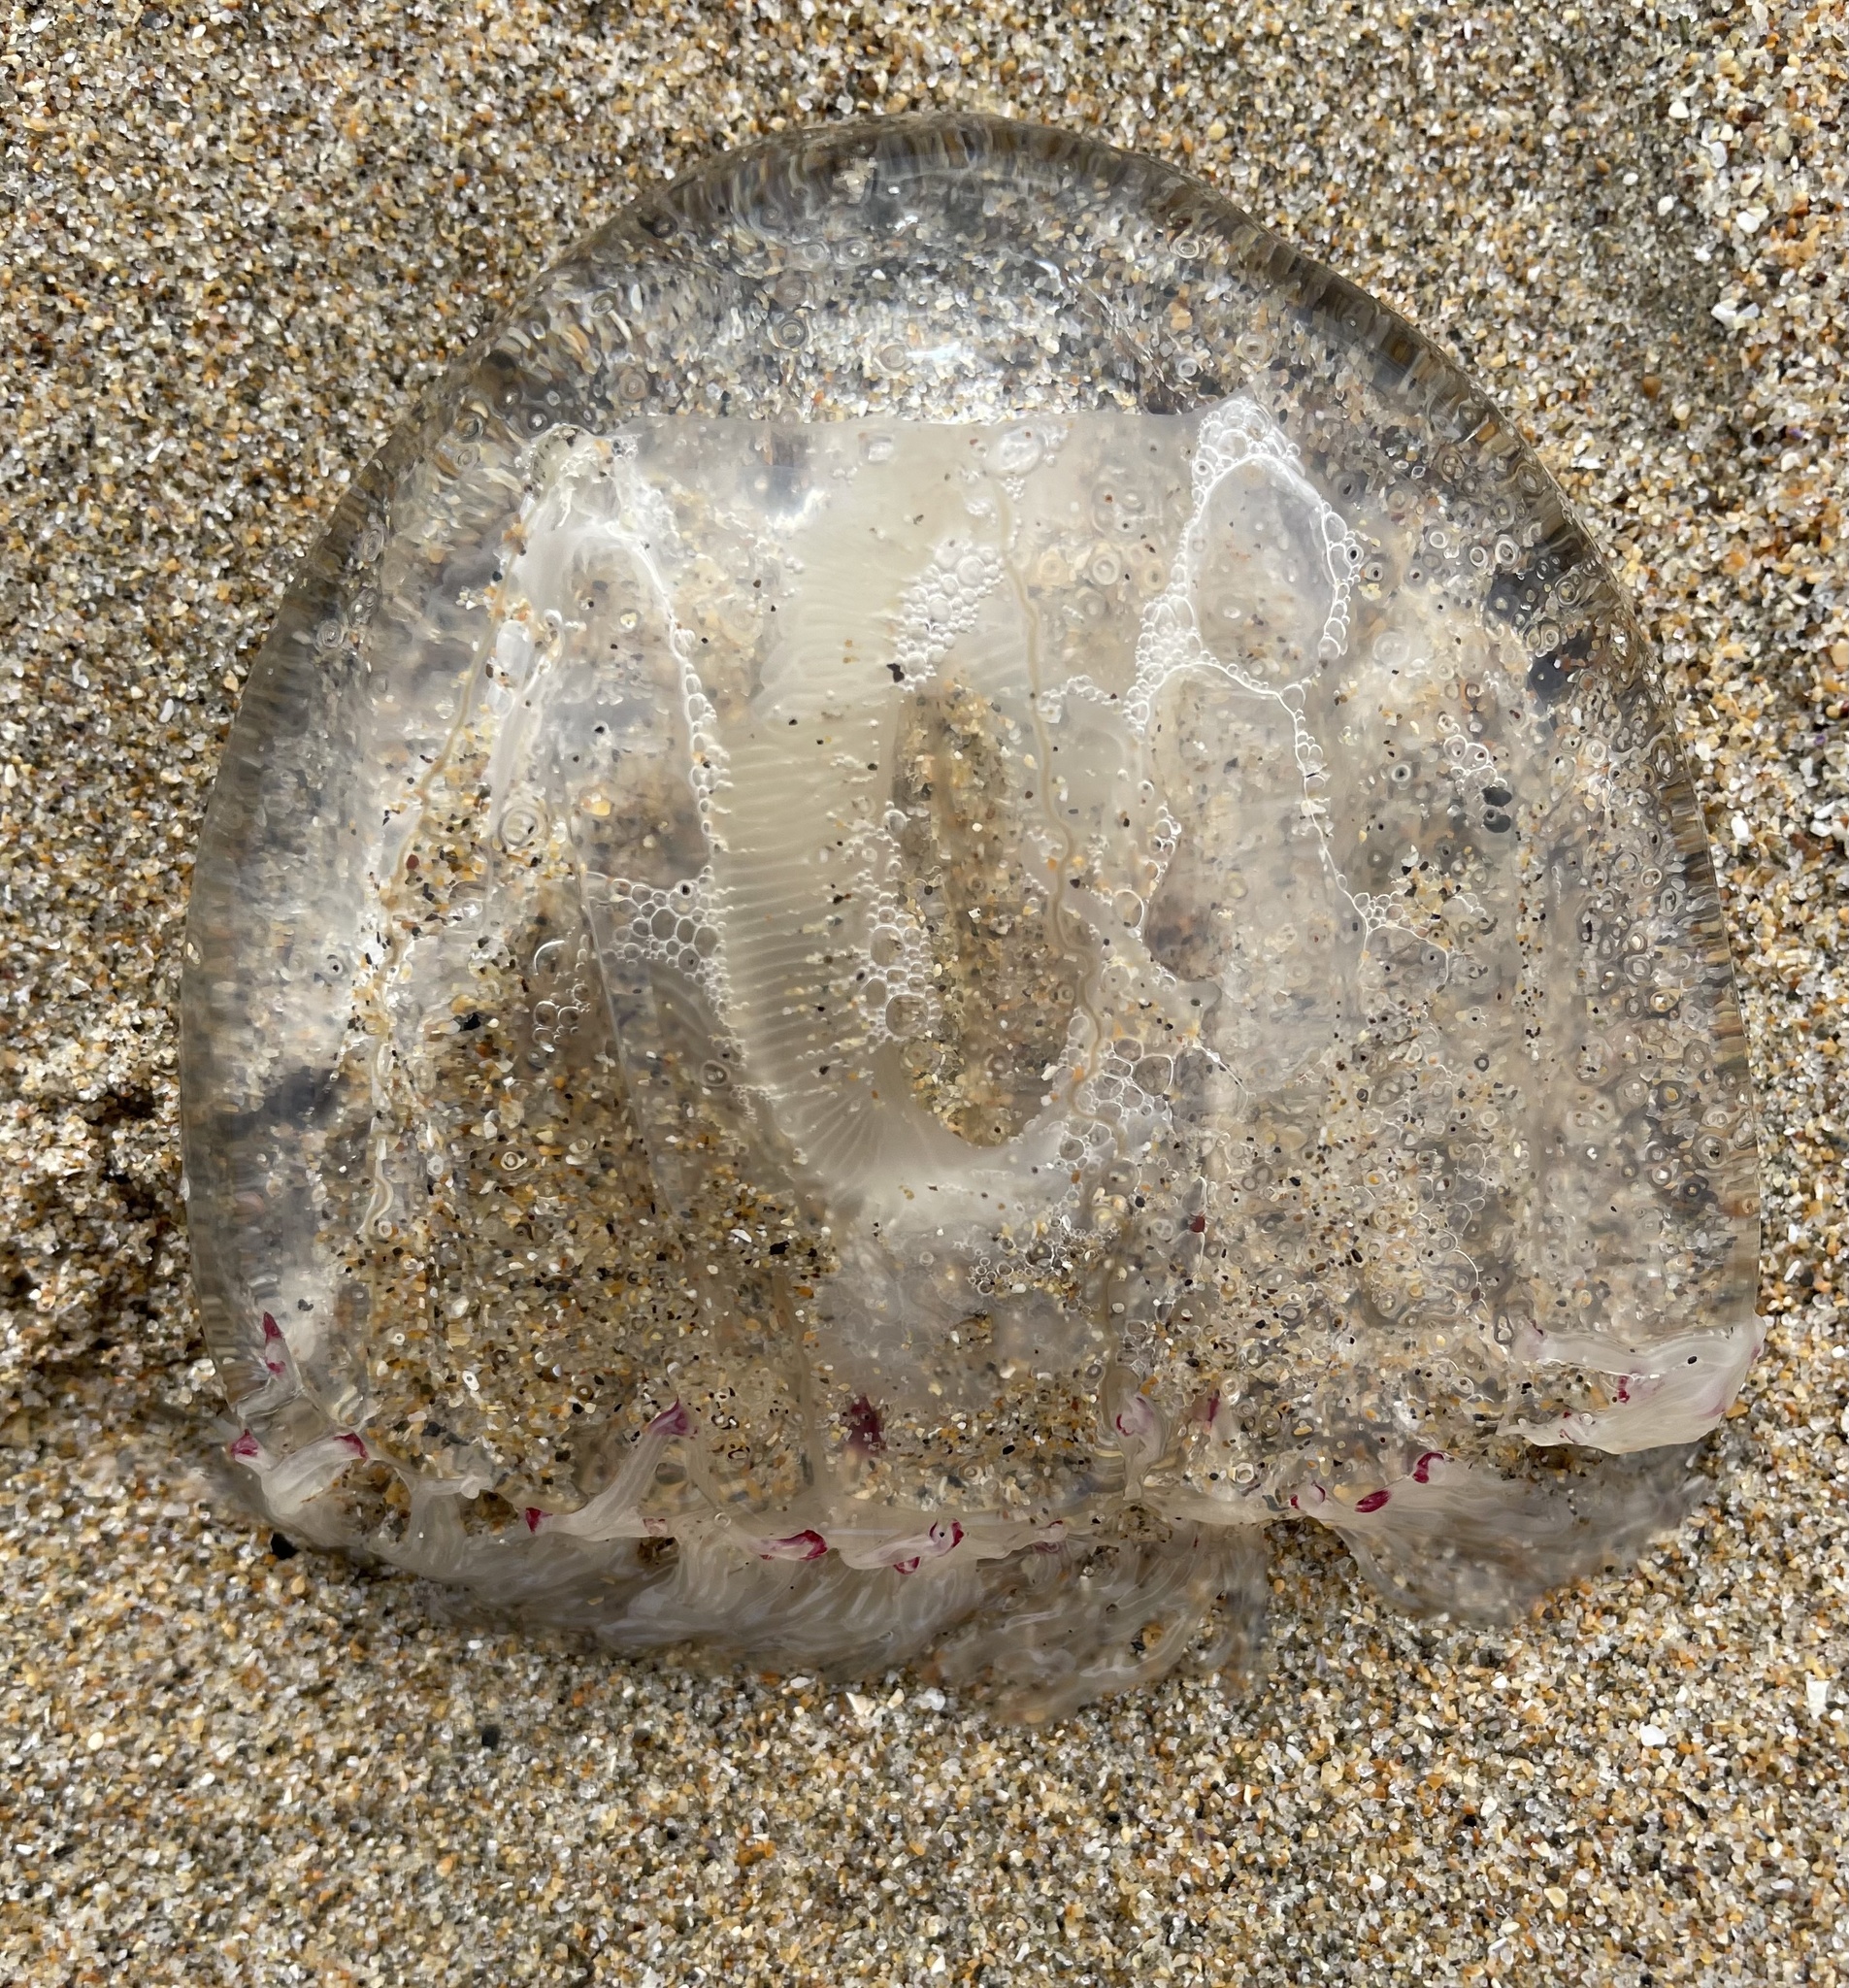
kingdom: Animalia
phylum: Cnidaria
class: Hydrozoa
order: Anthoathecata
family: Corynidae
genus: Scrippsia
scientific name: Scrippsia pacifica
